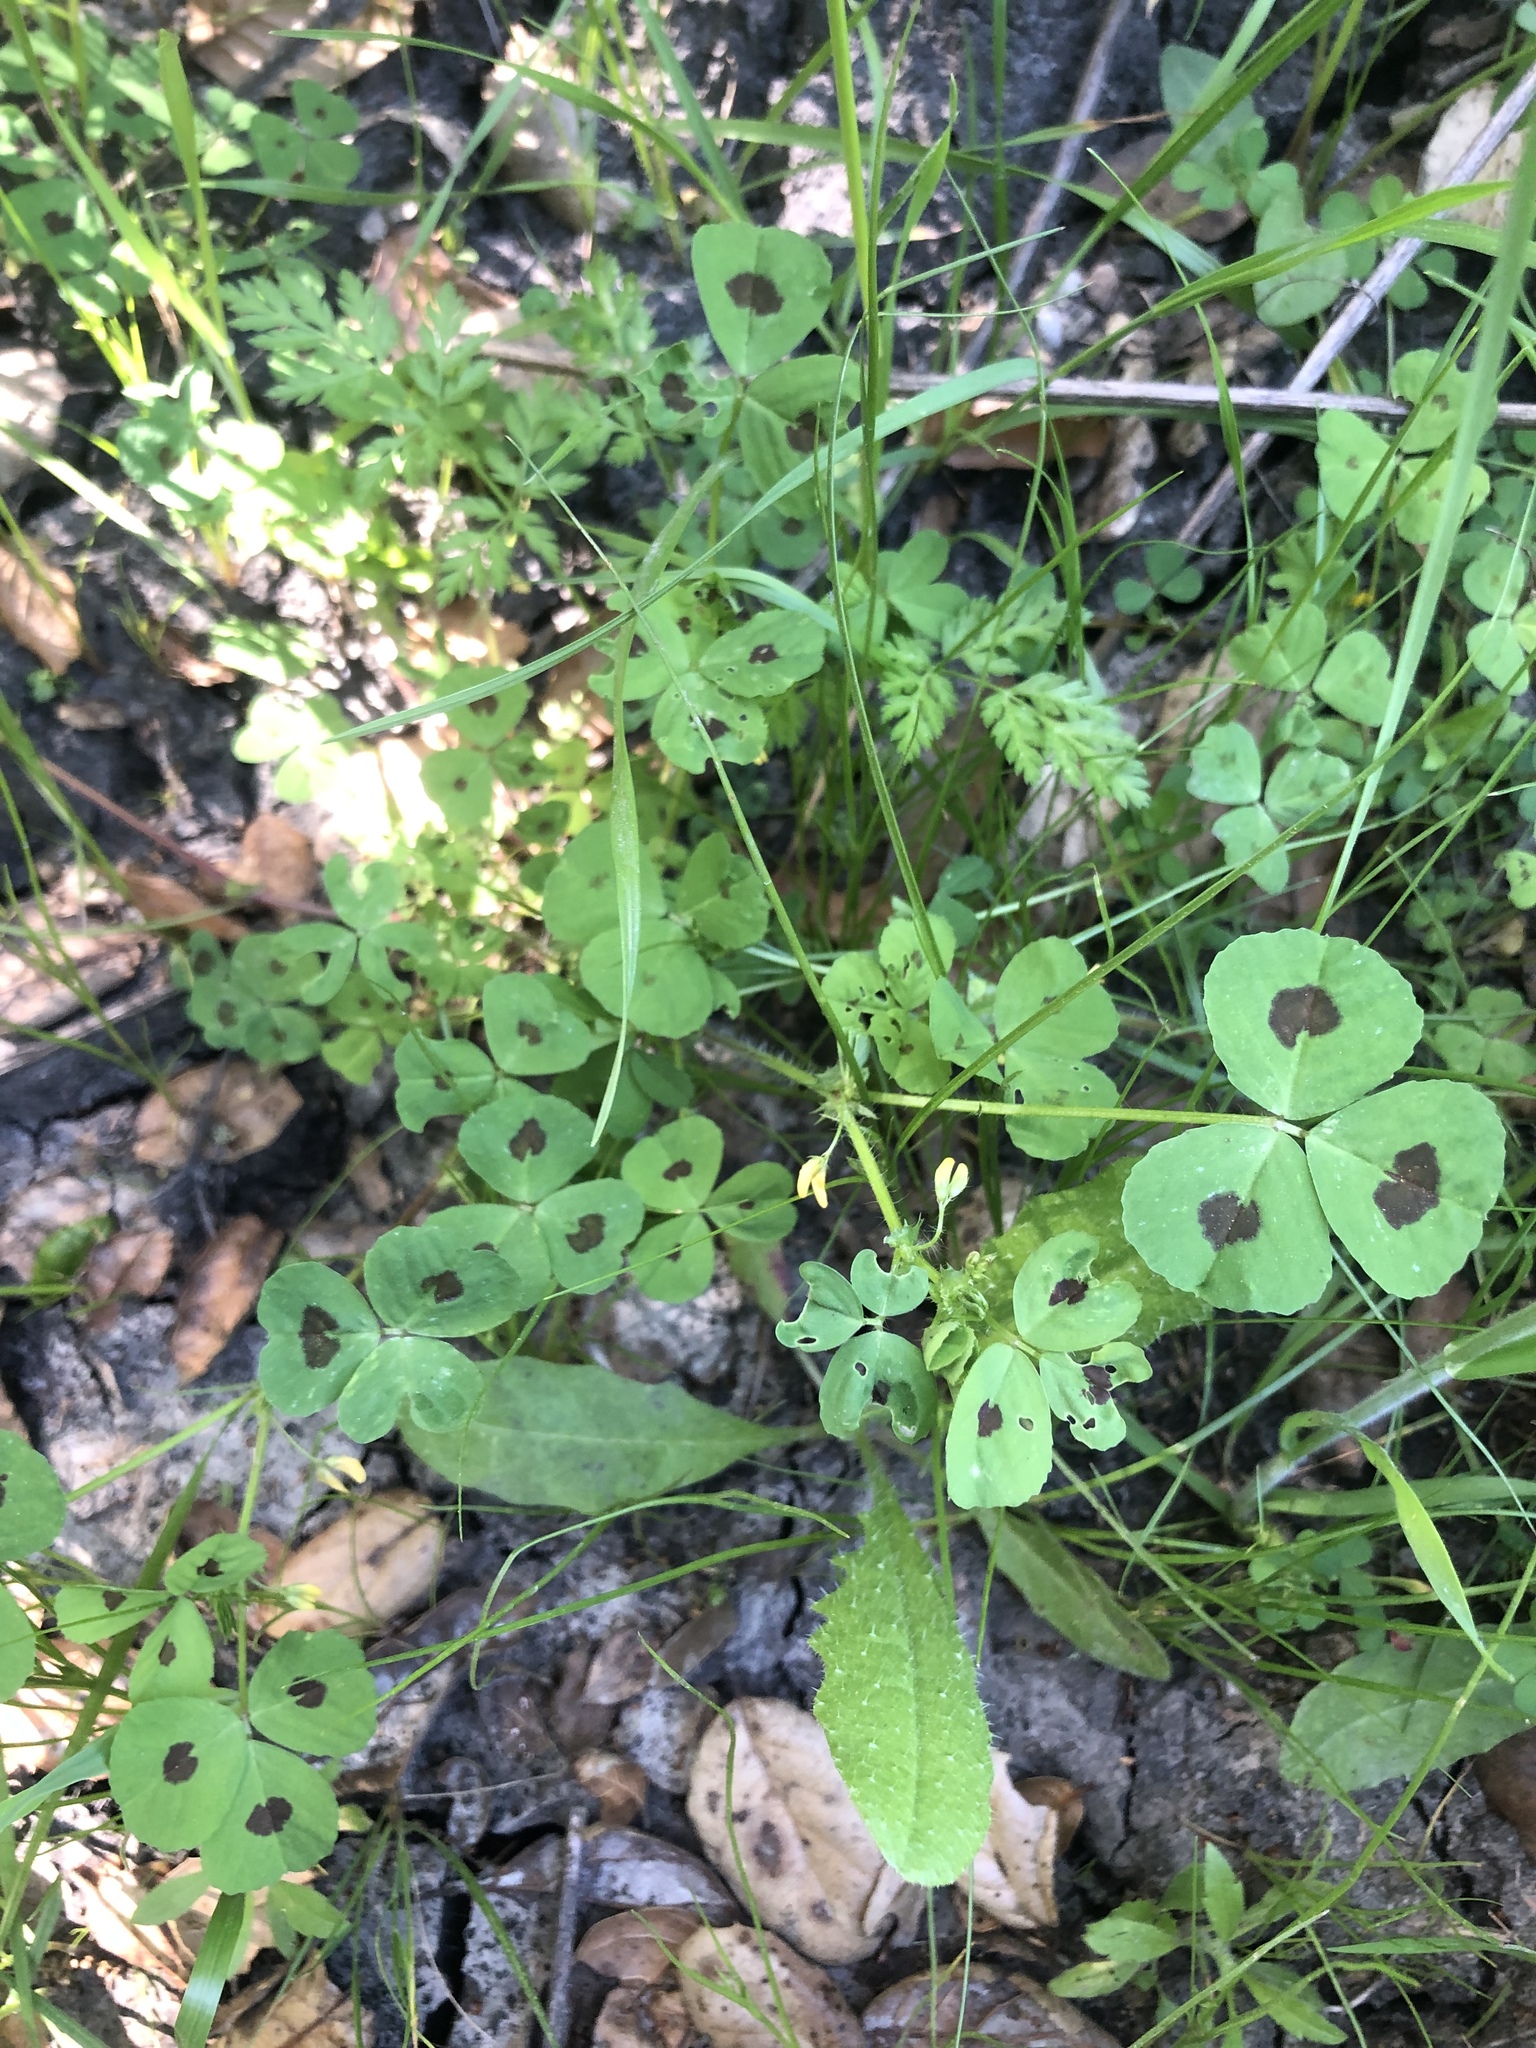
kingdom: Plantae
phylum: Tracheophyta
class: Magnoliopsida
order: Fabales
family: Fabaceae
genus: Medicago
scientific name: Medicago arabica
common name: Spotted medick
